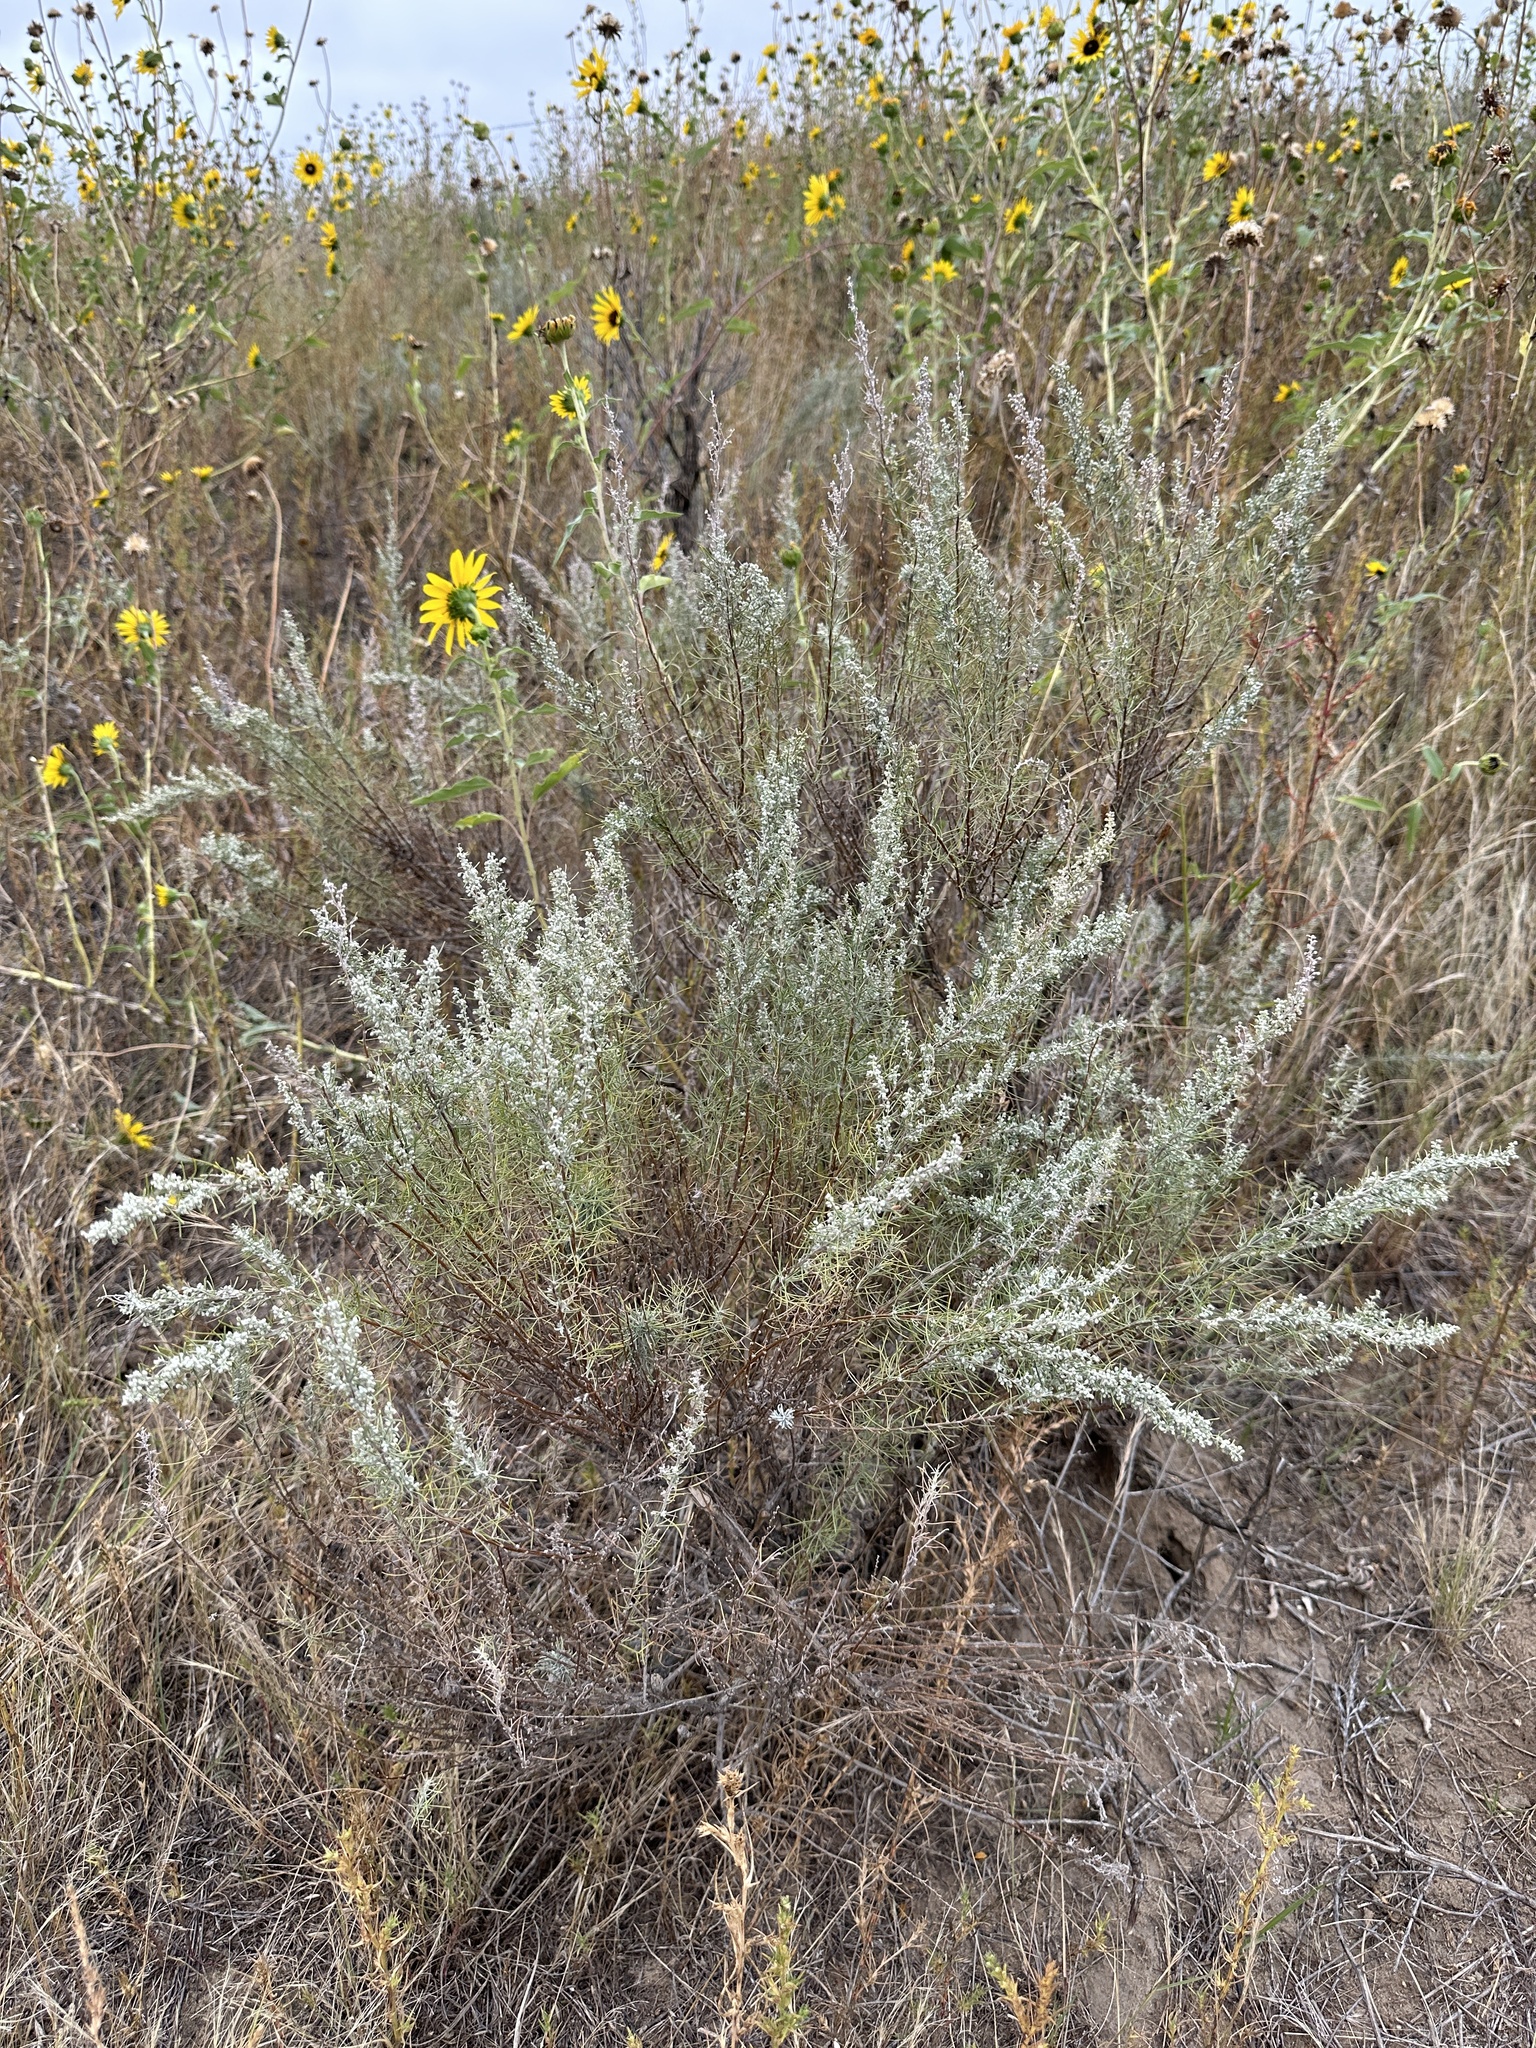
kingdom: Plantae
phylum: Tracheophyta
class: Magnoliopsida
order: Asterales
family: Asteraceae
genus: Artemisia
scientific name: Artemisia filifolia
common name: Sand-sage
